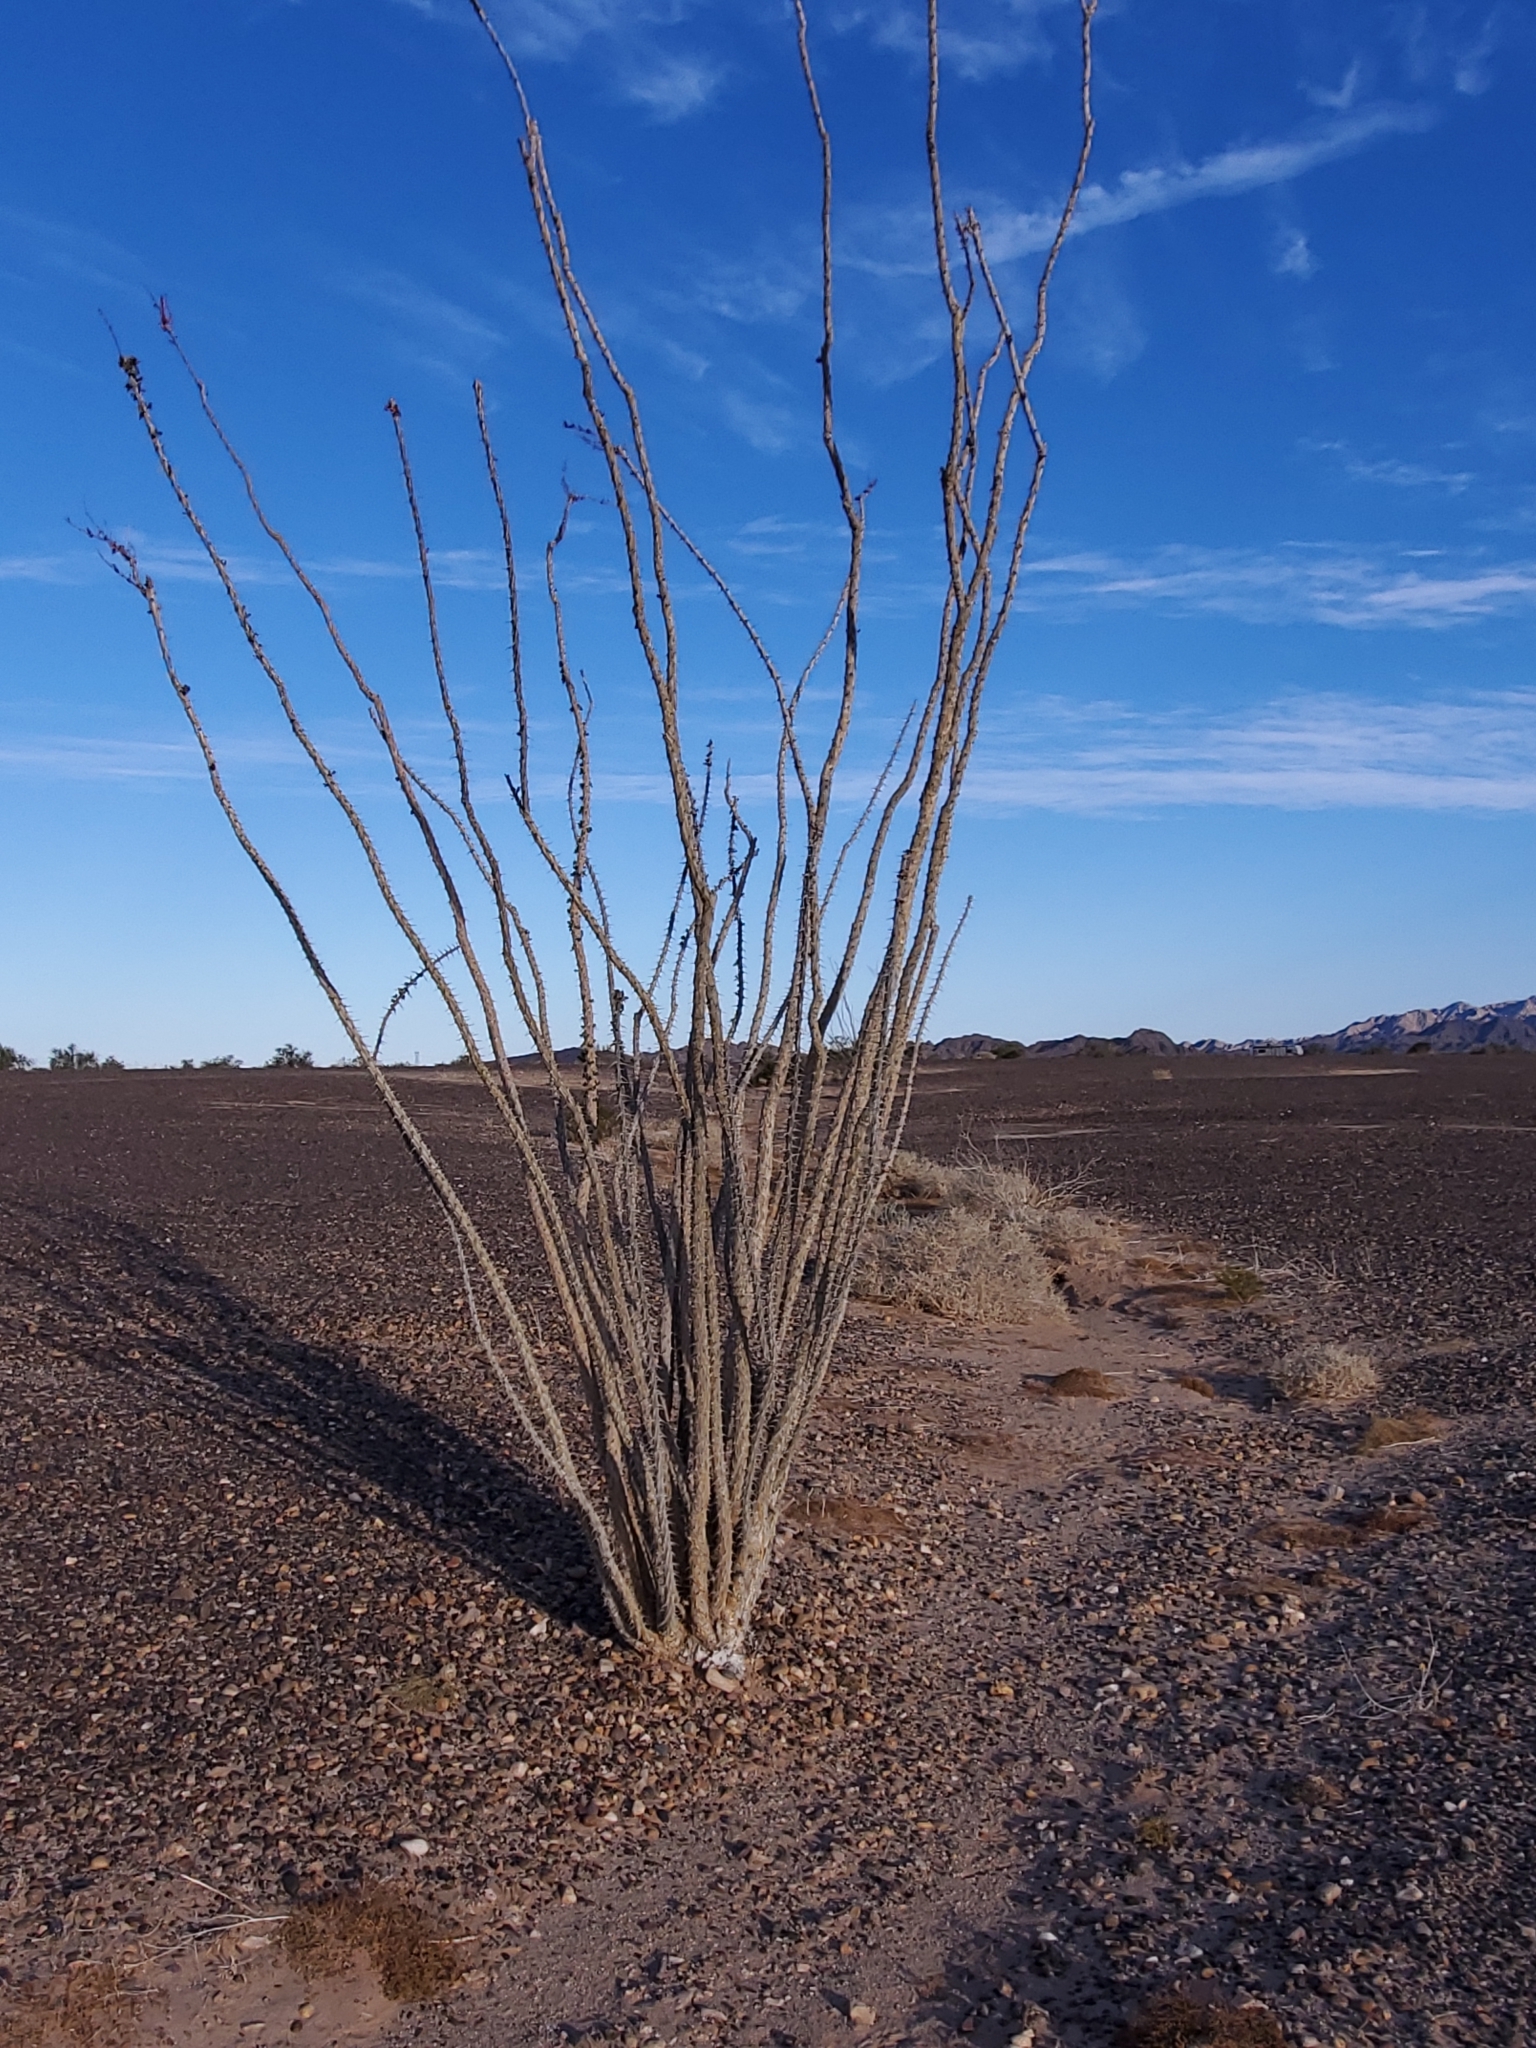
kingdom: Plantae
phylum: Tracheophyta
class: Magnoliopsida
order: Ericales
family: Fouquieriaceae
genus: Fouquieria
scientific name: Fouquieria splendens
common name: Vine-cactus
